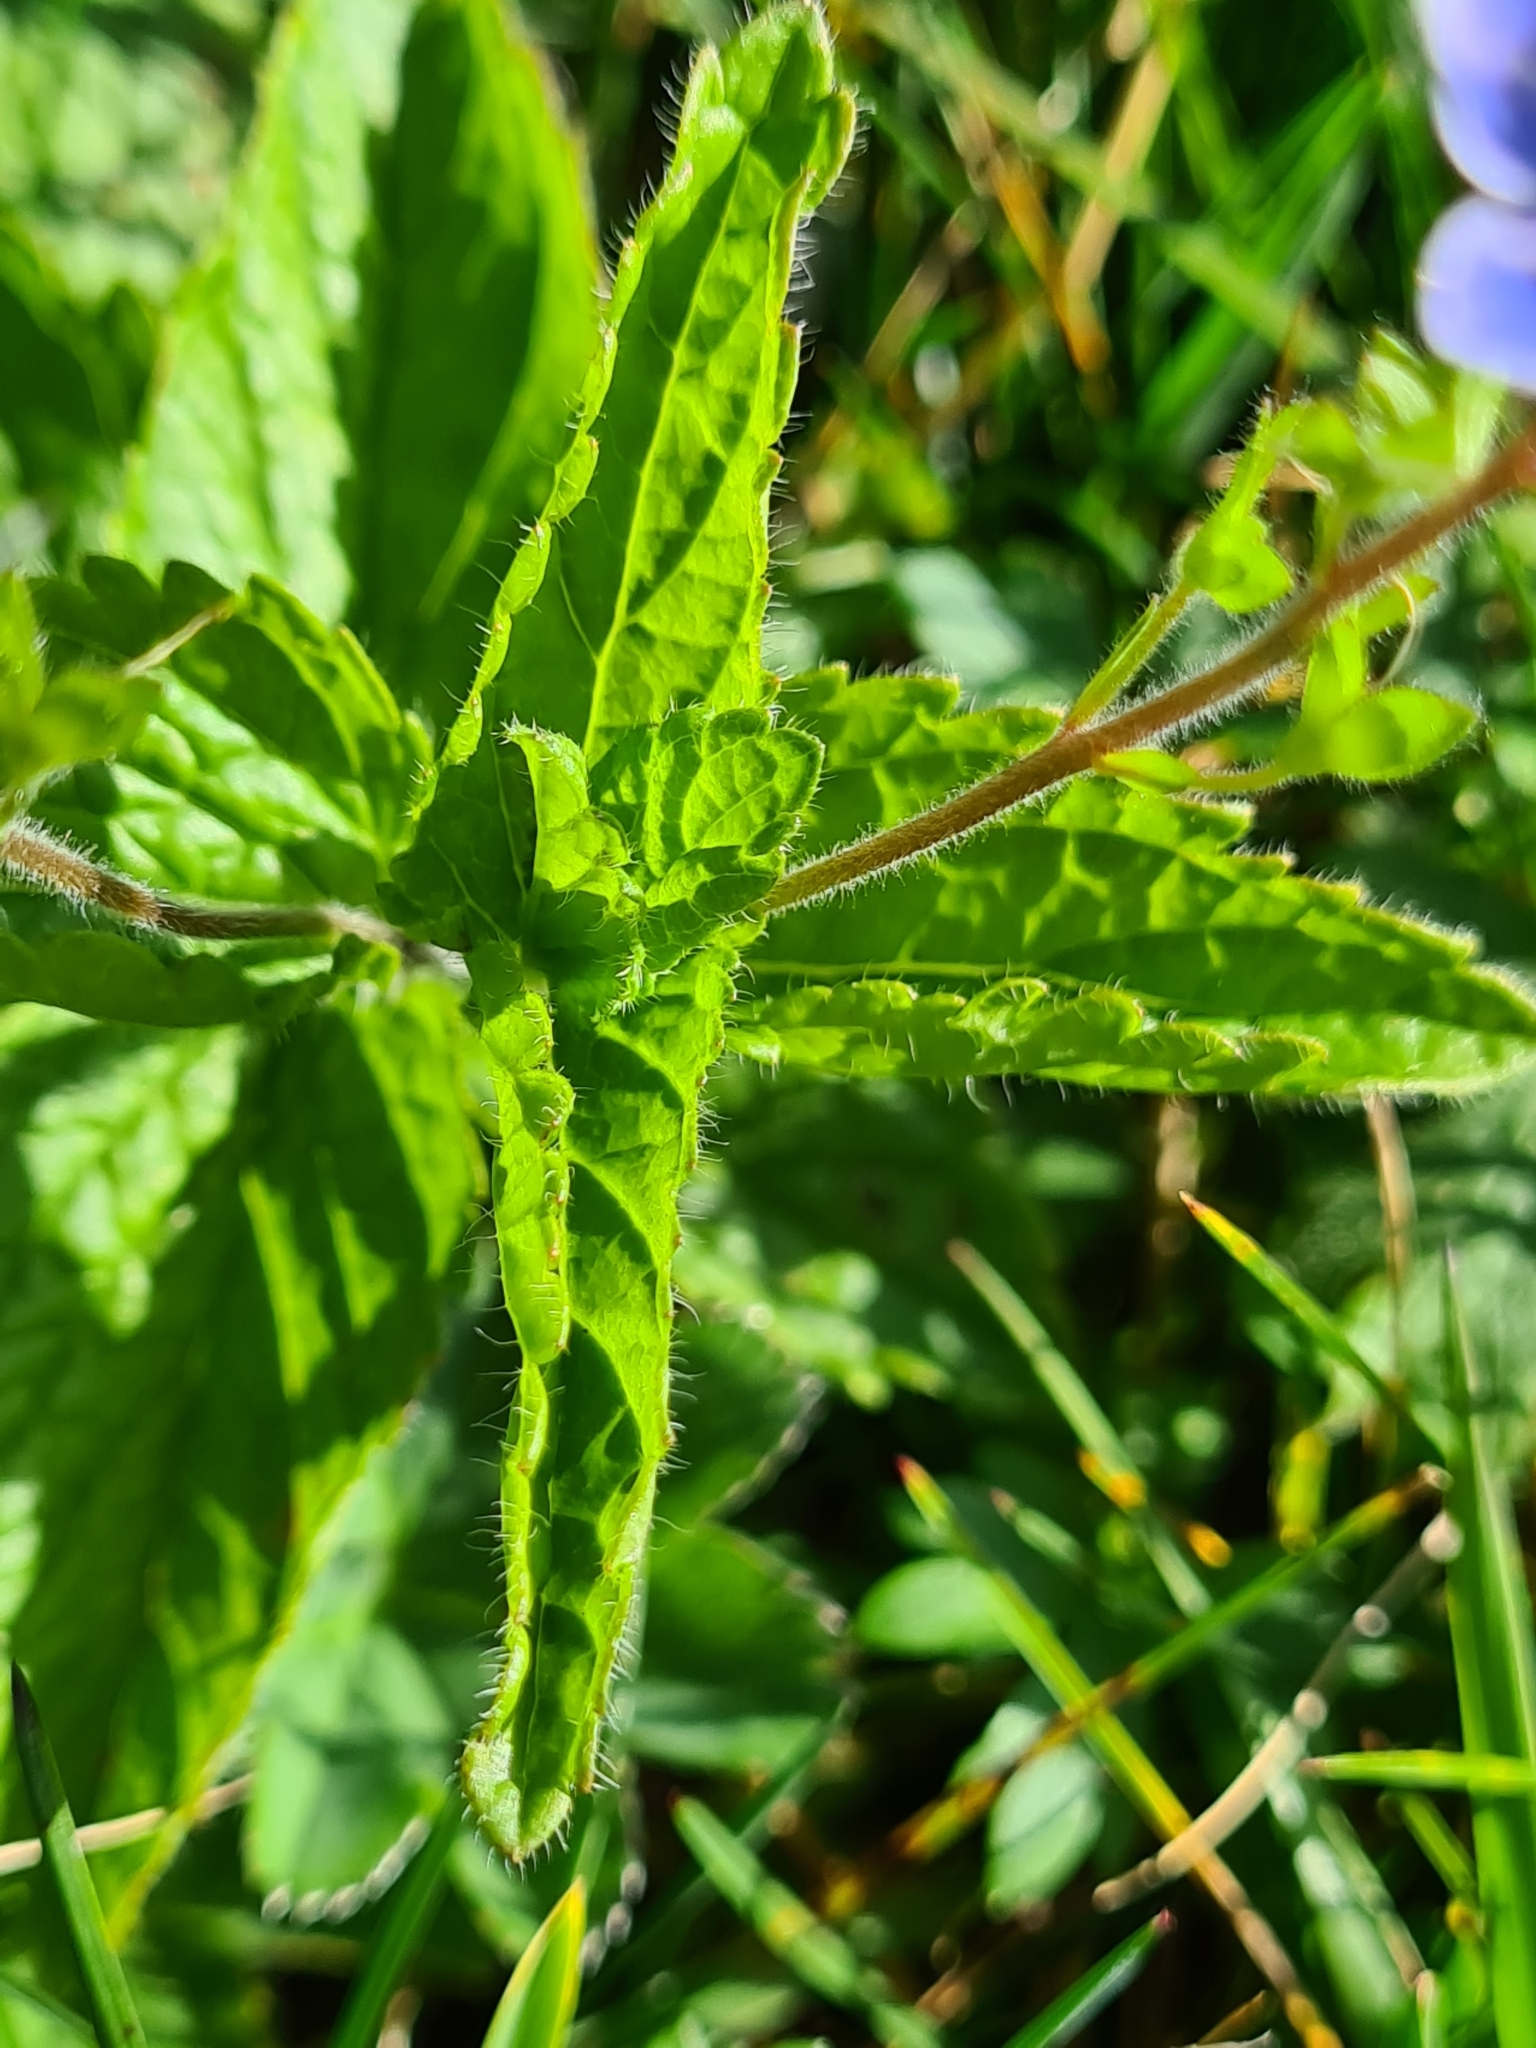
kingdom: Plantae
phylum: Tracheophyta
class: Magnoliopsida
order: Lamiales
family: Plantaginaceae
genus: Veronica
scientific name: Veronica chamaedrys
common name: Germander speedwell
